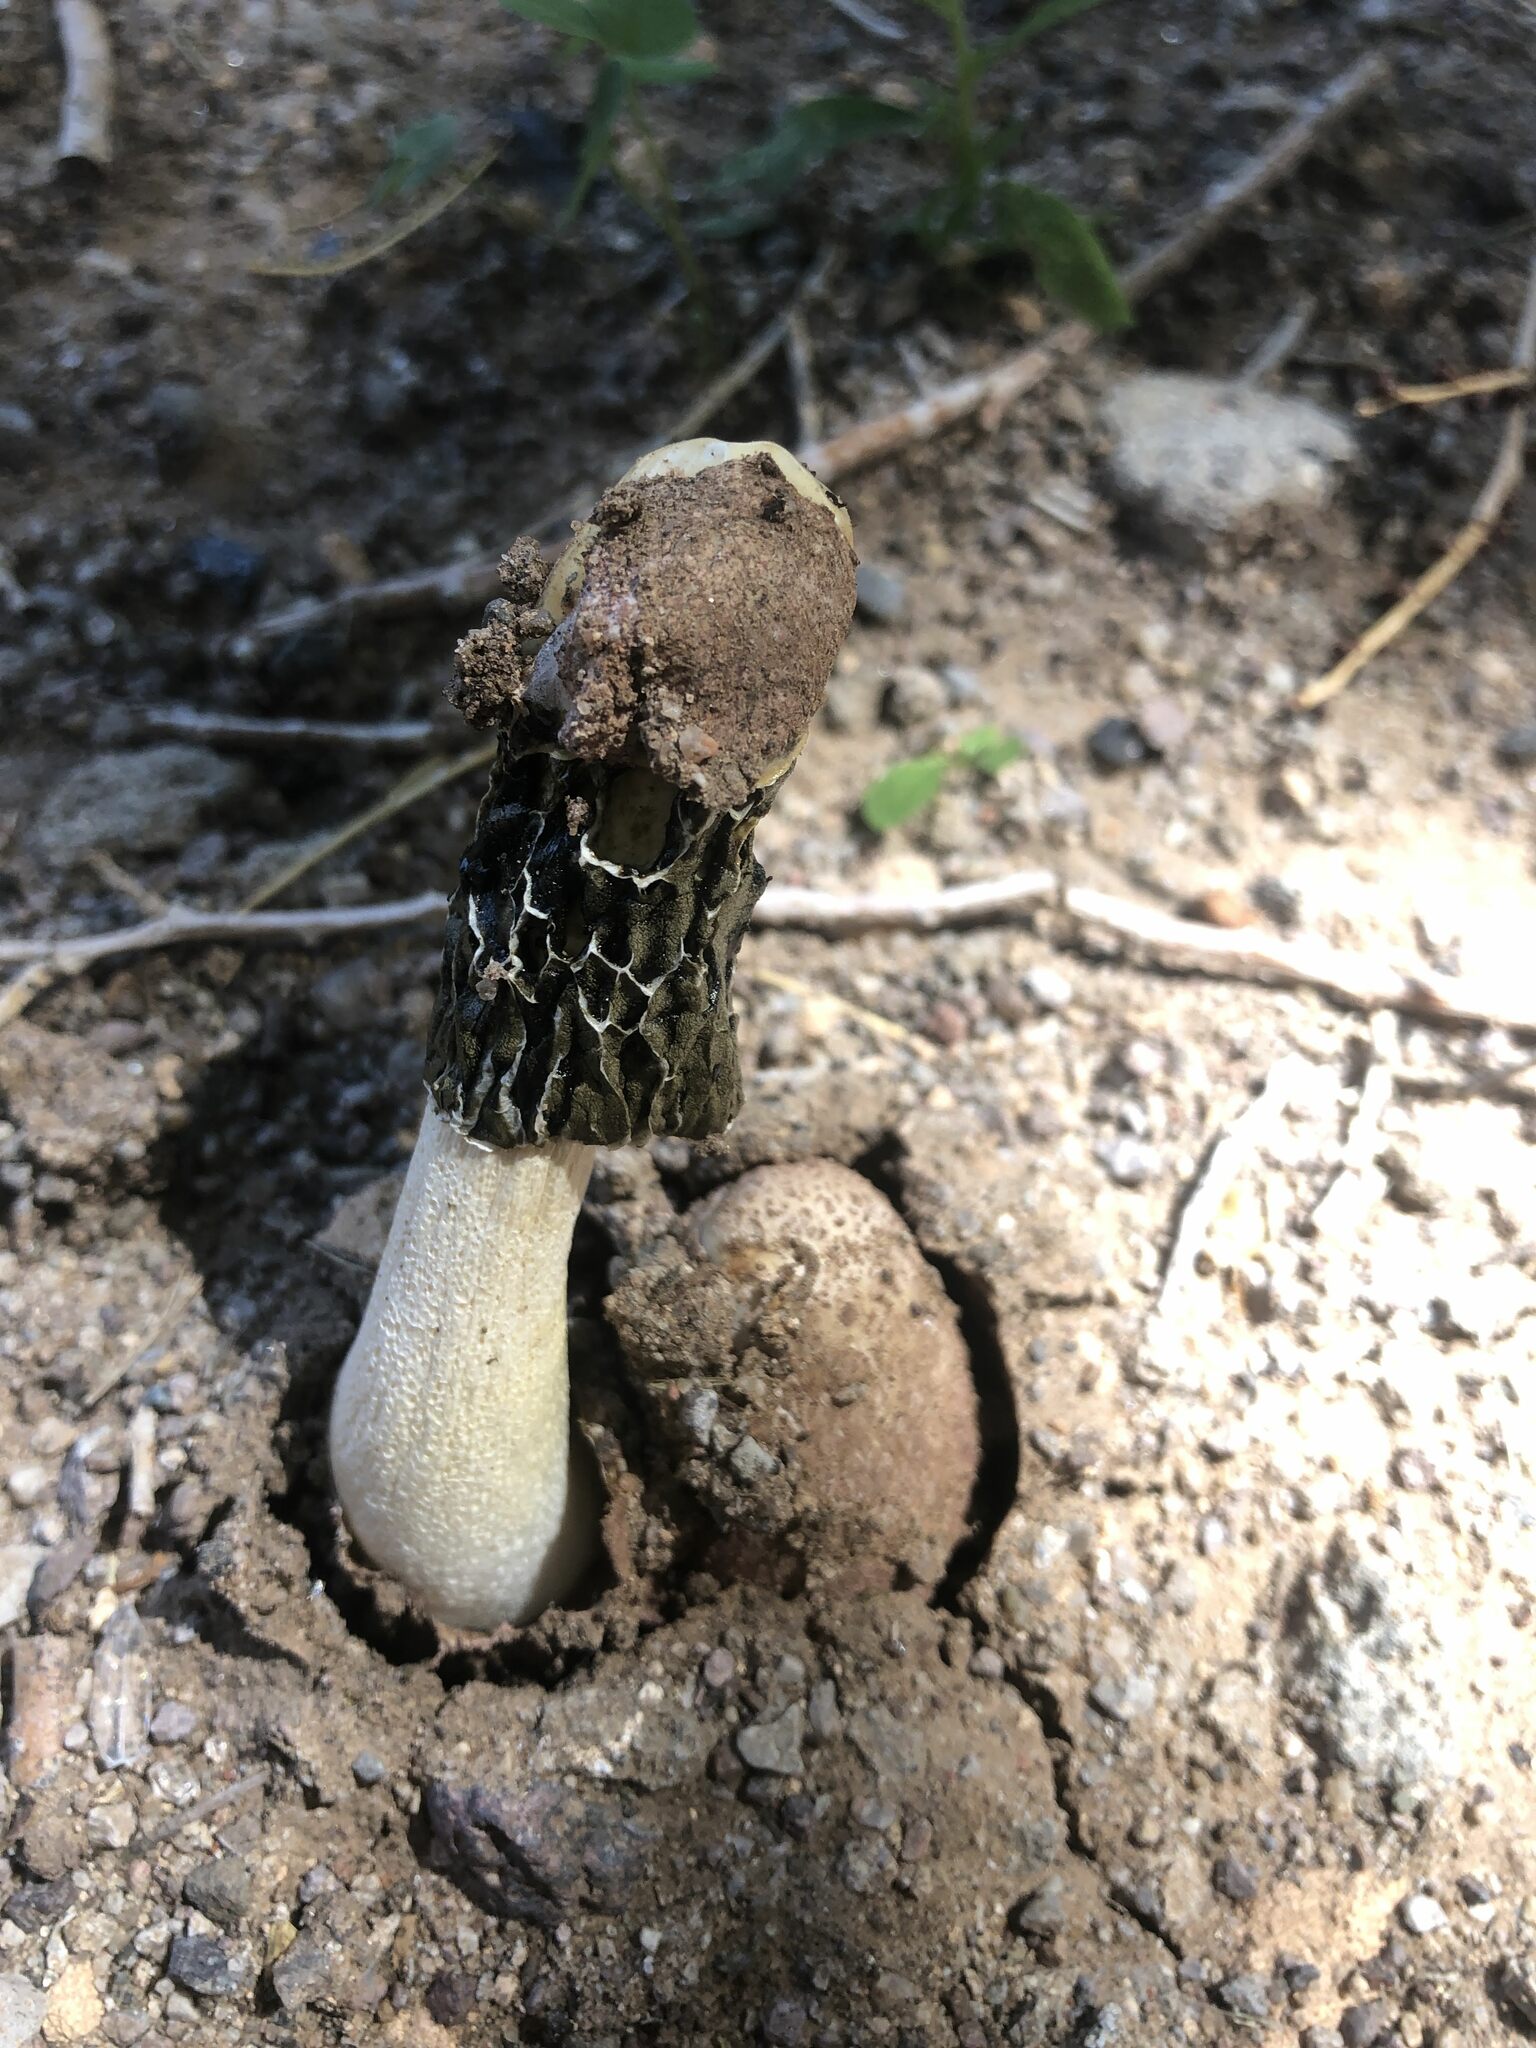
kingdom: Fungi
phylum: Basidiomycota
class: Agaricomycetes
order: Phallales
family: Phallaceae
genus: Phallus
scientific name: Phallus hadriani
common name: Sand stinkhorn
